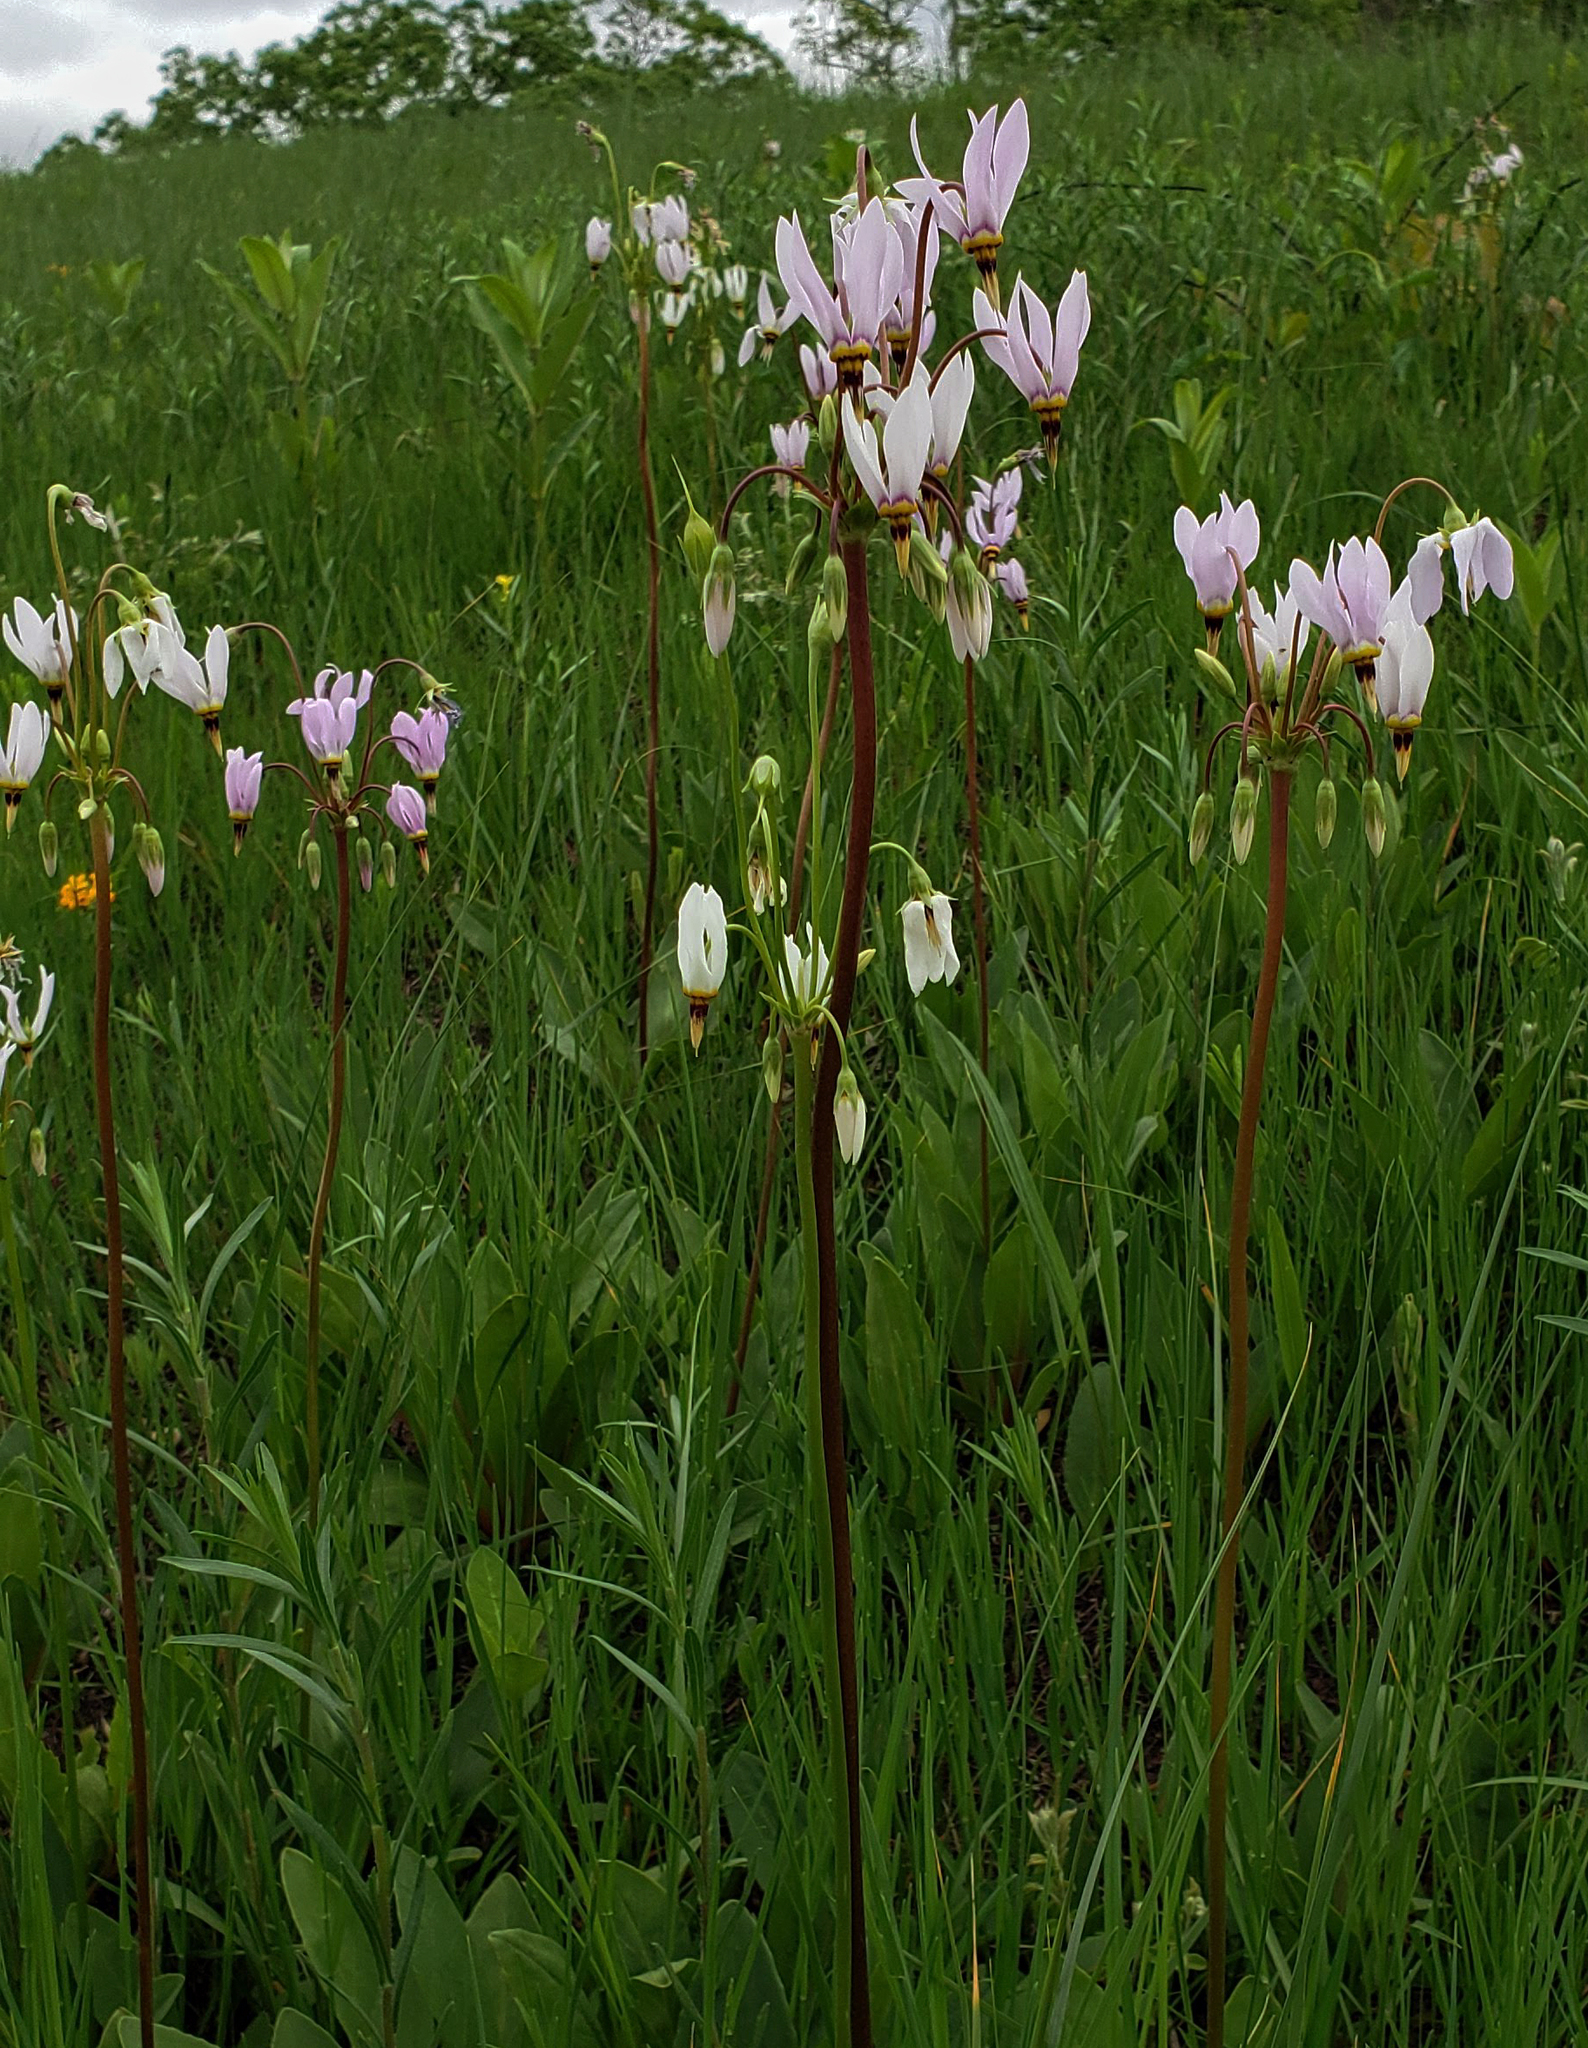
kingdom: Plantae
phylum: Tracheophyta
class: Magnoliopsida
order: Ericales
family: Primulaceae
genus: Dodecatheon
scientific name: Dodecatheon meadia
